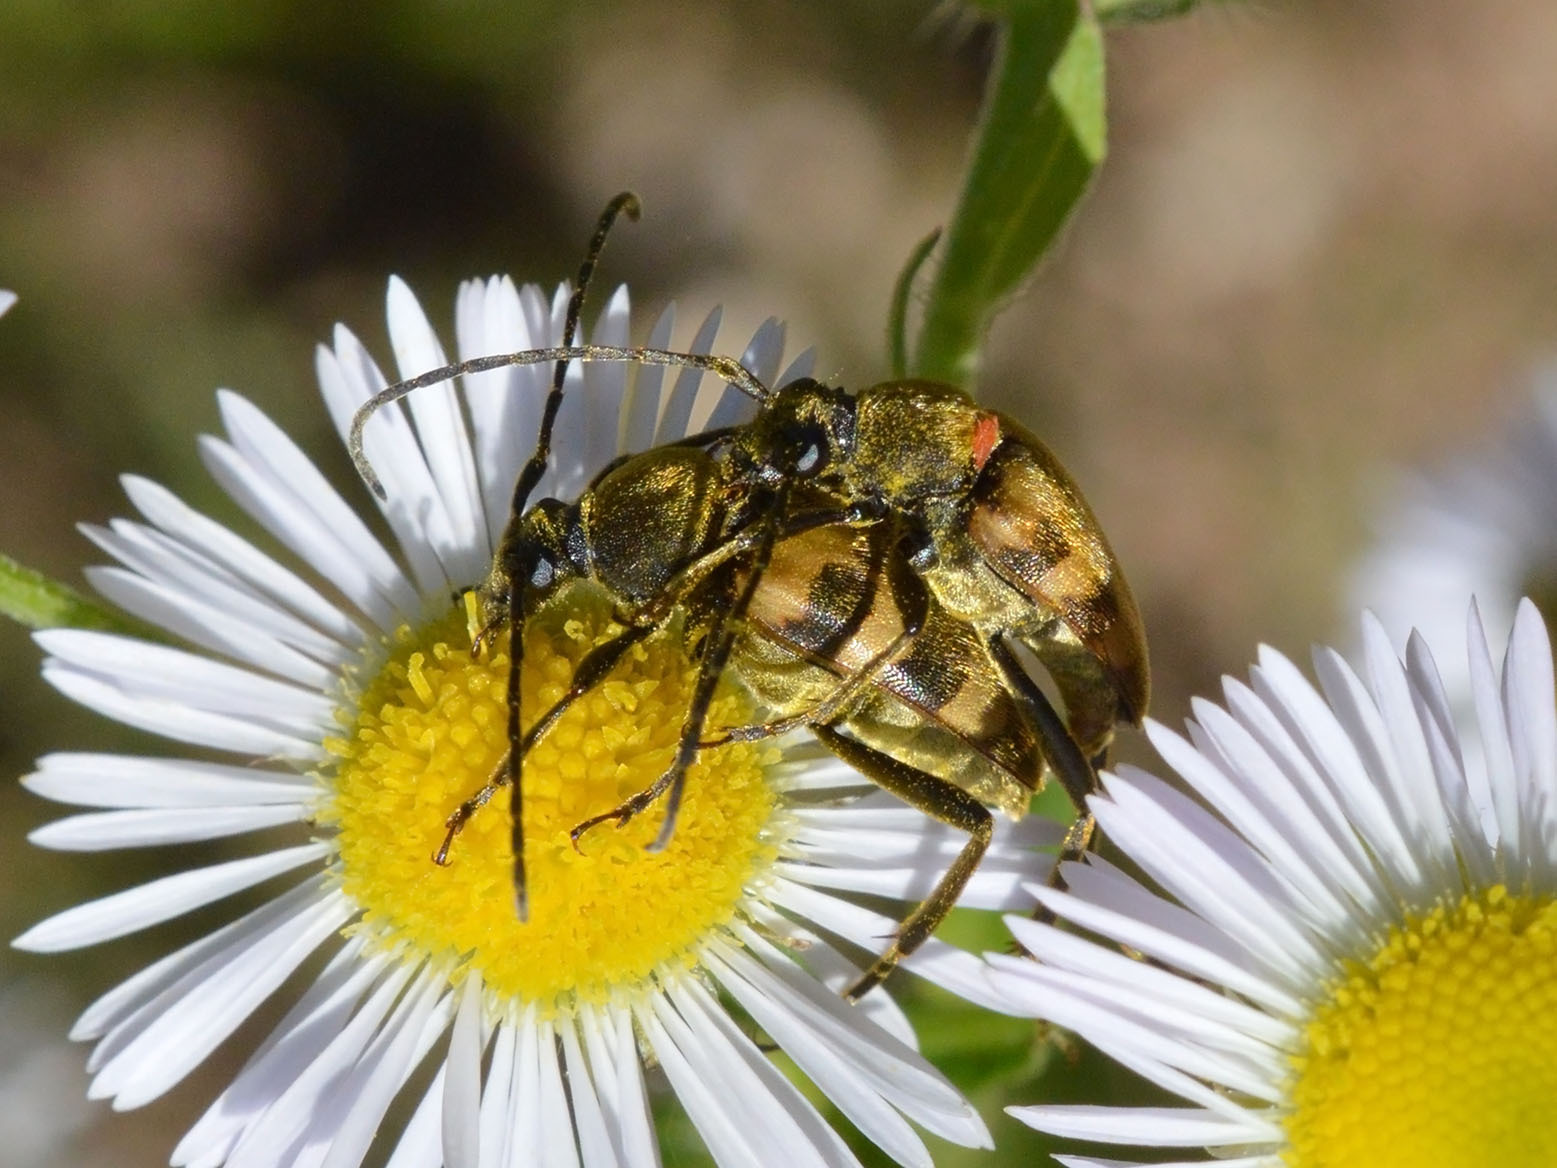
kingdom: Animalia
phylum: Arthropoda
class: Insecta
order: Coleoptera
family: Cerambycidae
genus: Pachytodes
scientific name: Pachytodes
